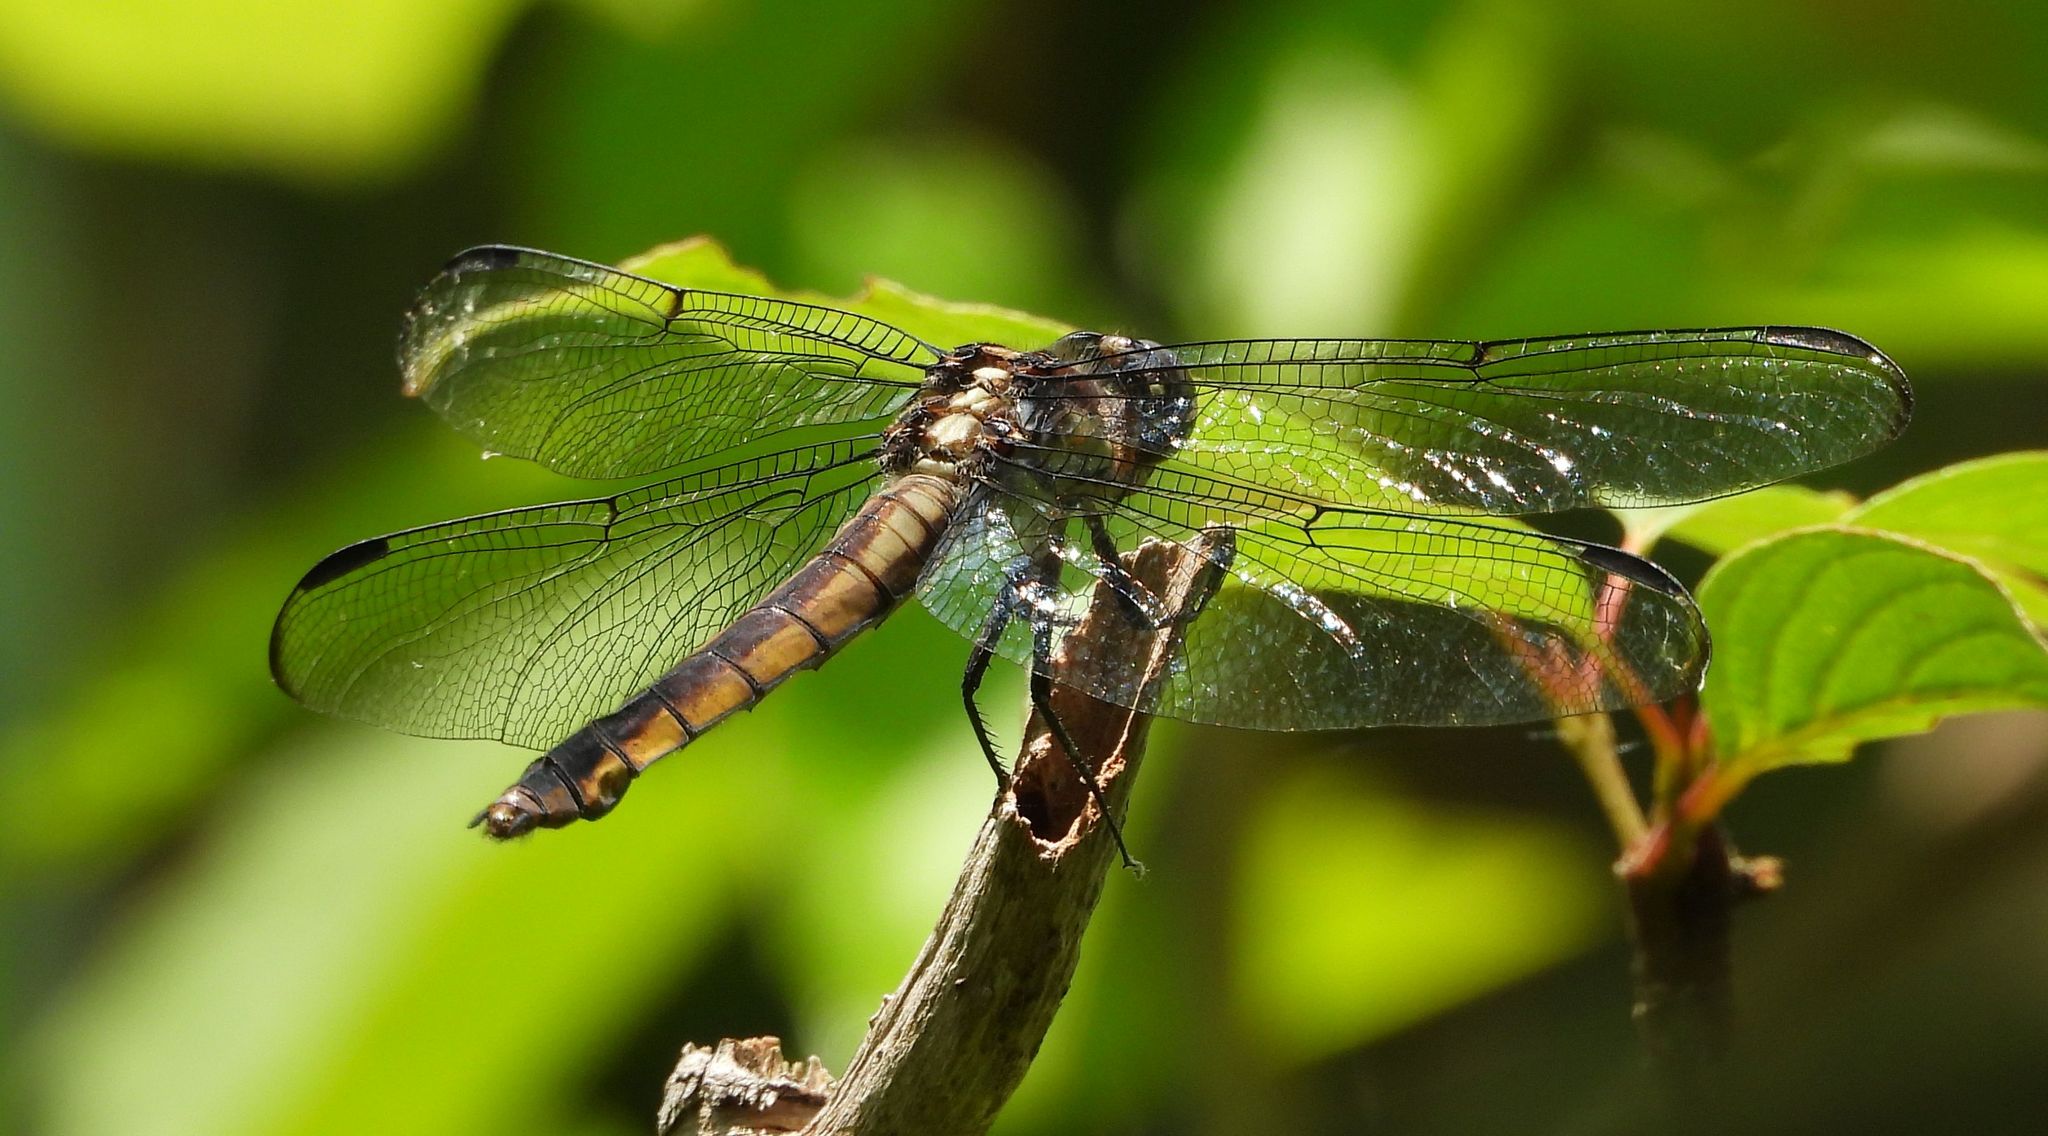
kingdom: Animalia
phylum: Arthropoda
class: Insecta
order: Odonata
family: Libellulidae
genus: Libellula
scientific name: Libellula incesta
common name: Slaty skimmer
